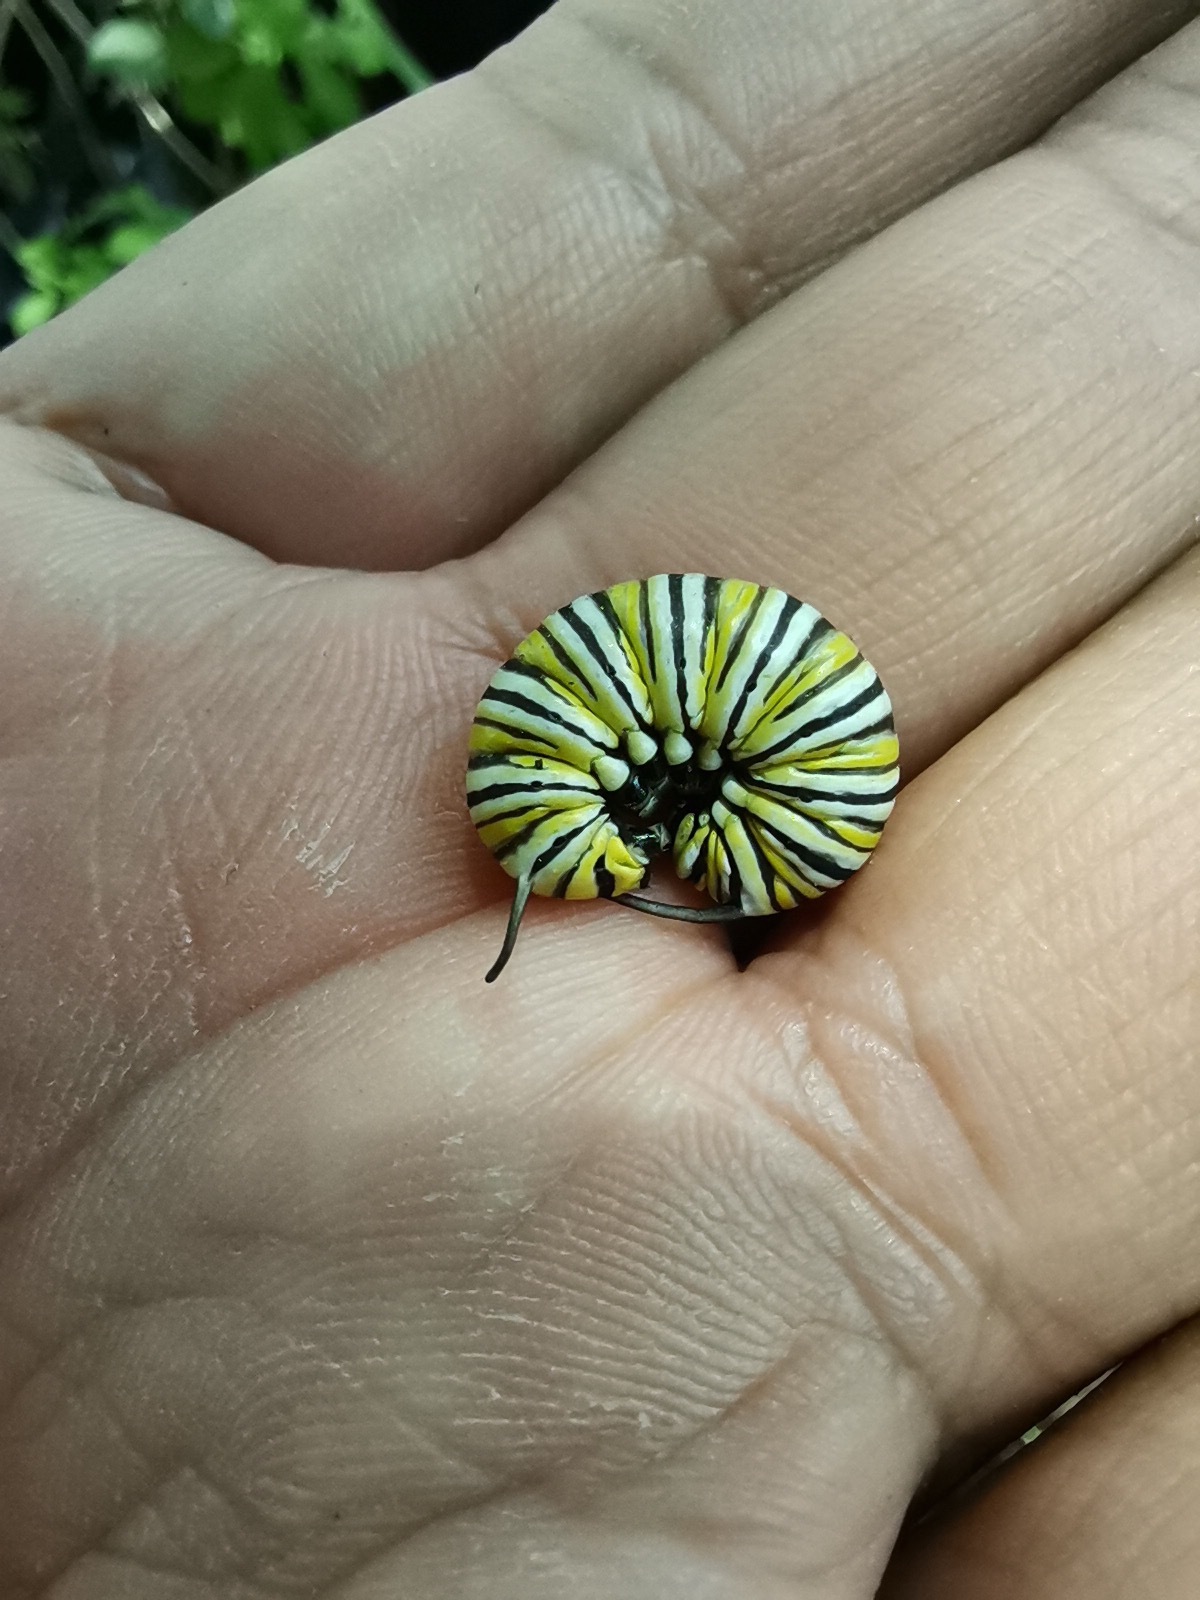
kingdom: Animalia
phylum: Arthropoda
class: Insecta
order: Lepidoptera
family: Nymphalidae
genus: Danaus
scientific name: Danaus plexippus
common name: Monarch
